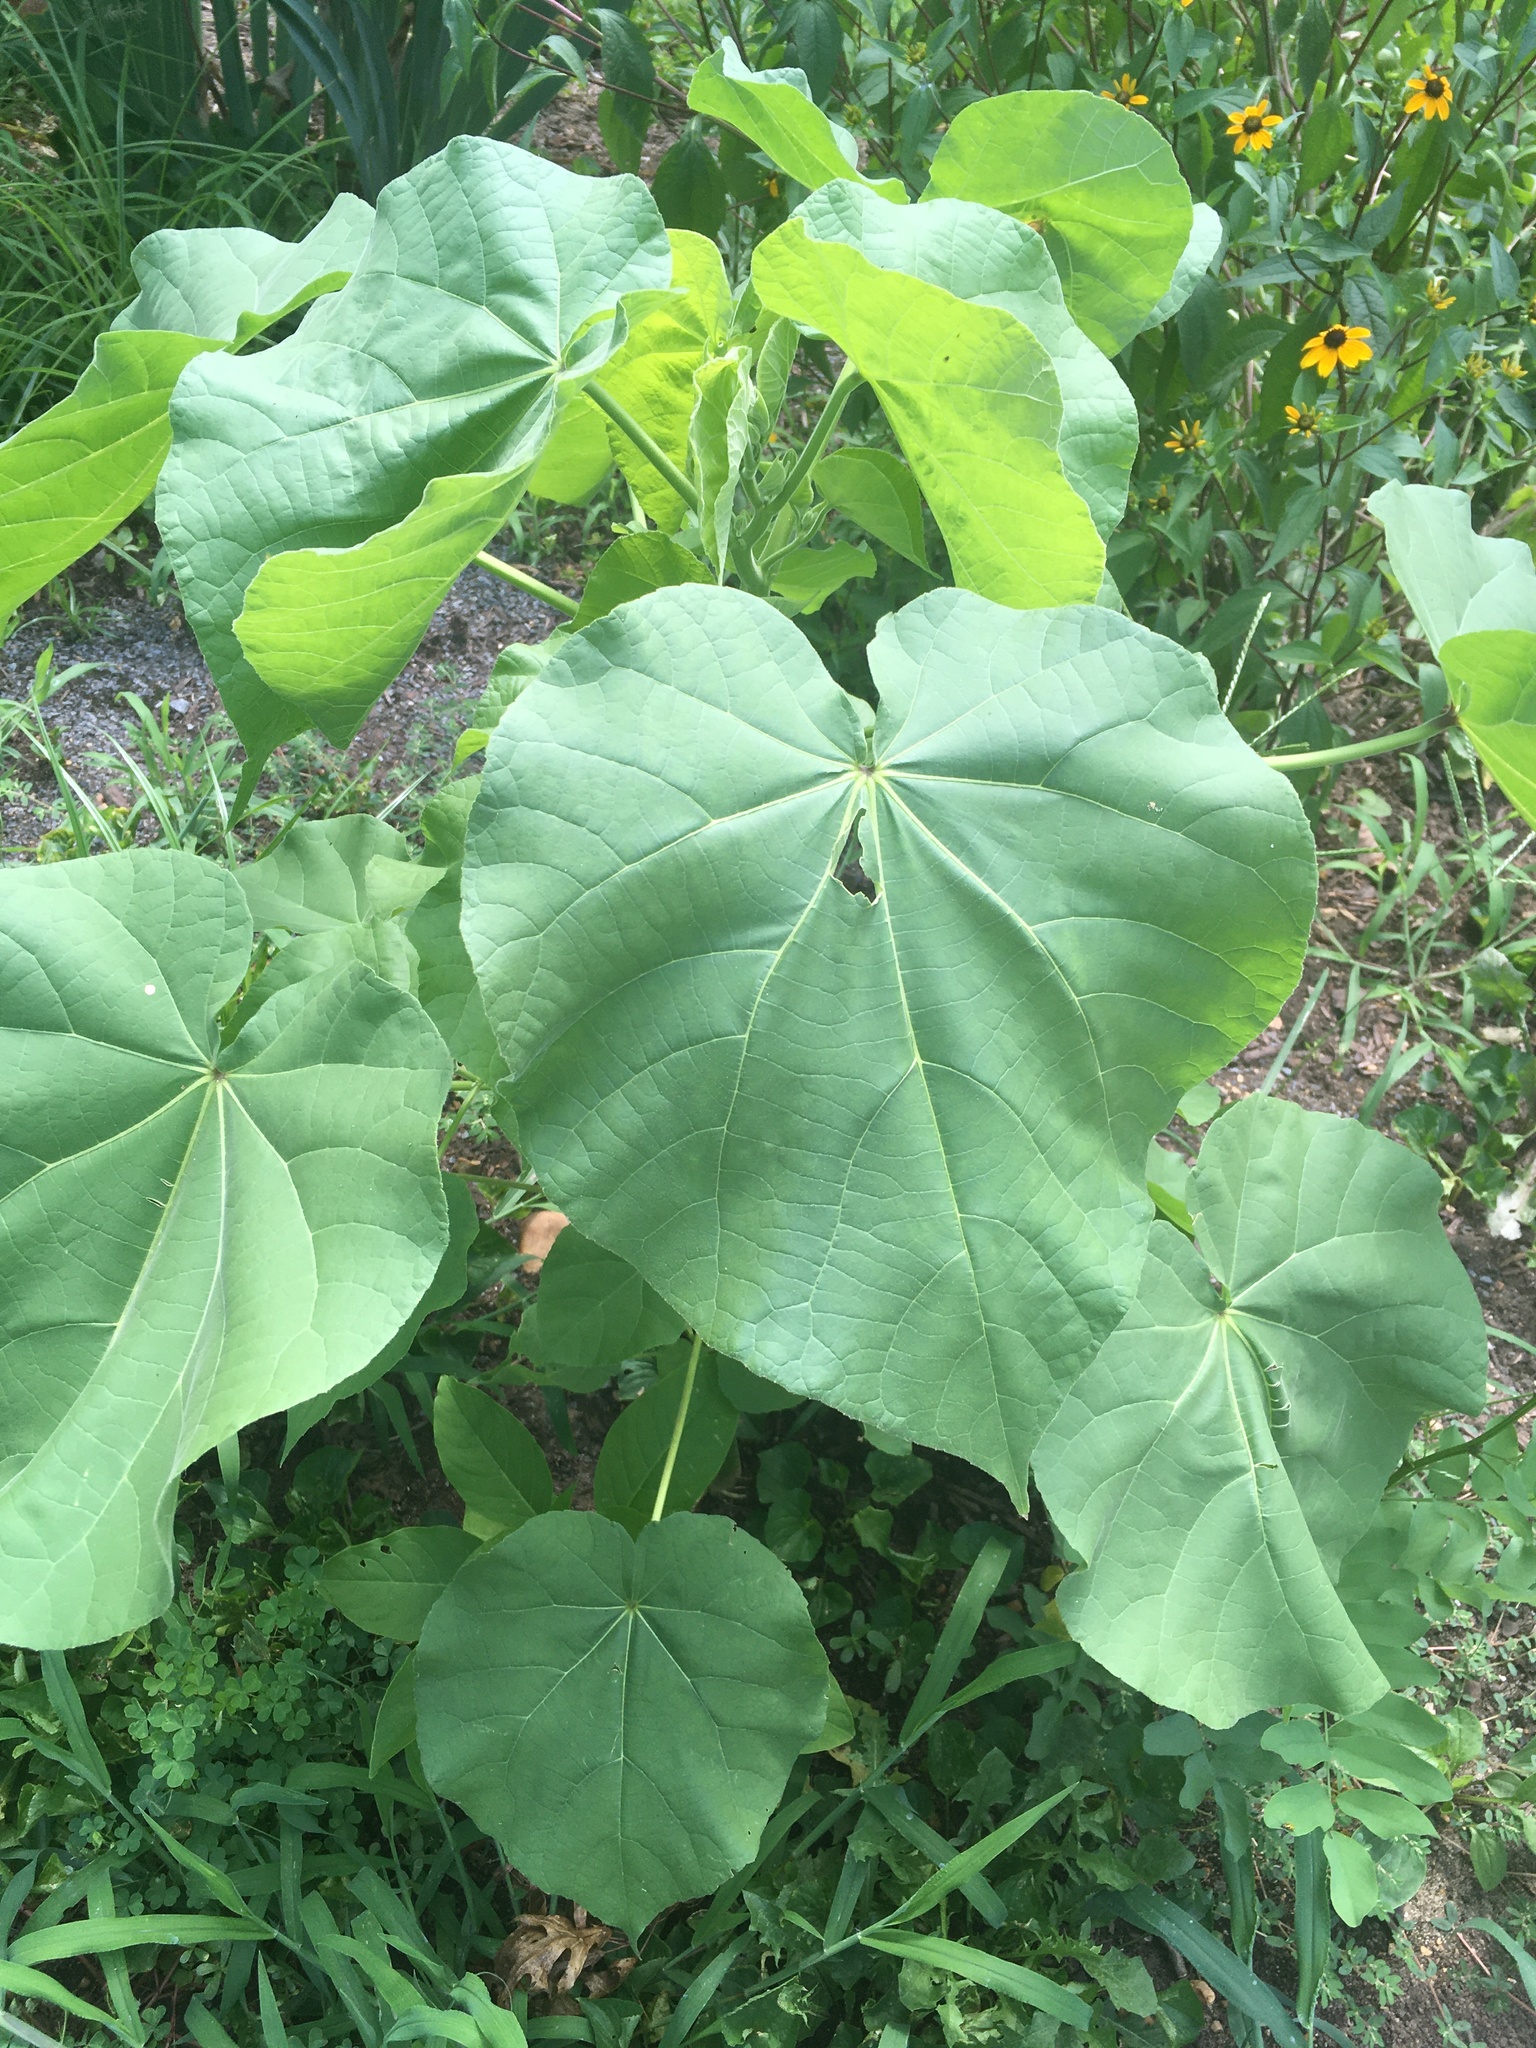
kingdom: Plantae
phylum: Tracheophyta
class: Magnoliopsida
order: Malvales
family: Malvaceae
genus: Abutilon
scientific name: Abutilon theophrasti
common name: Velvetleaf
